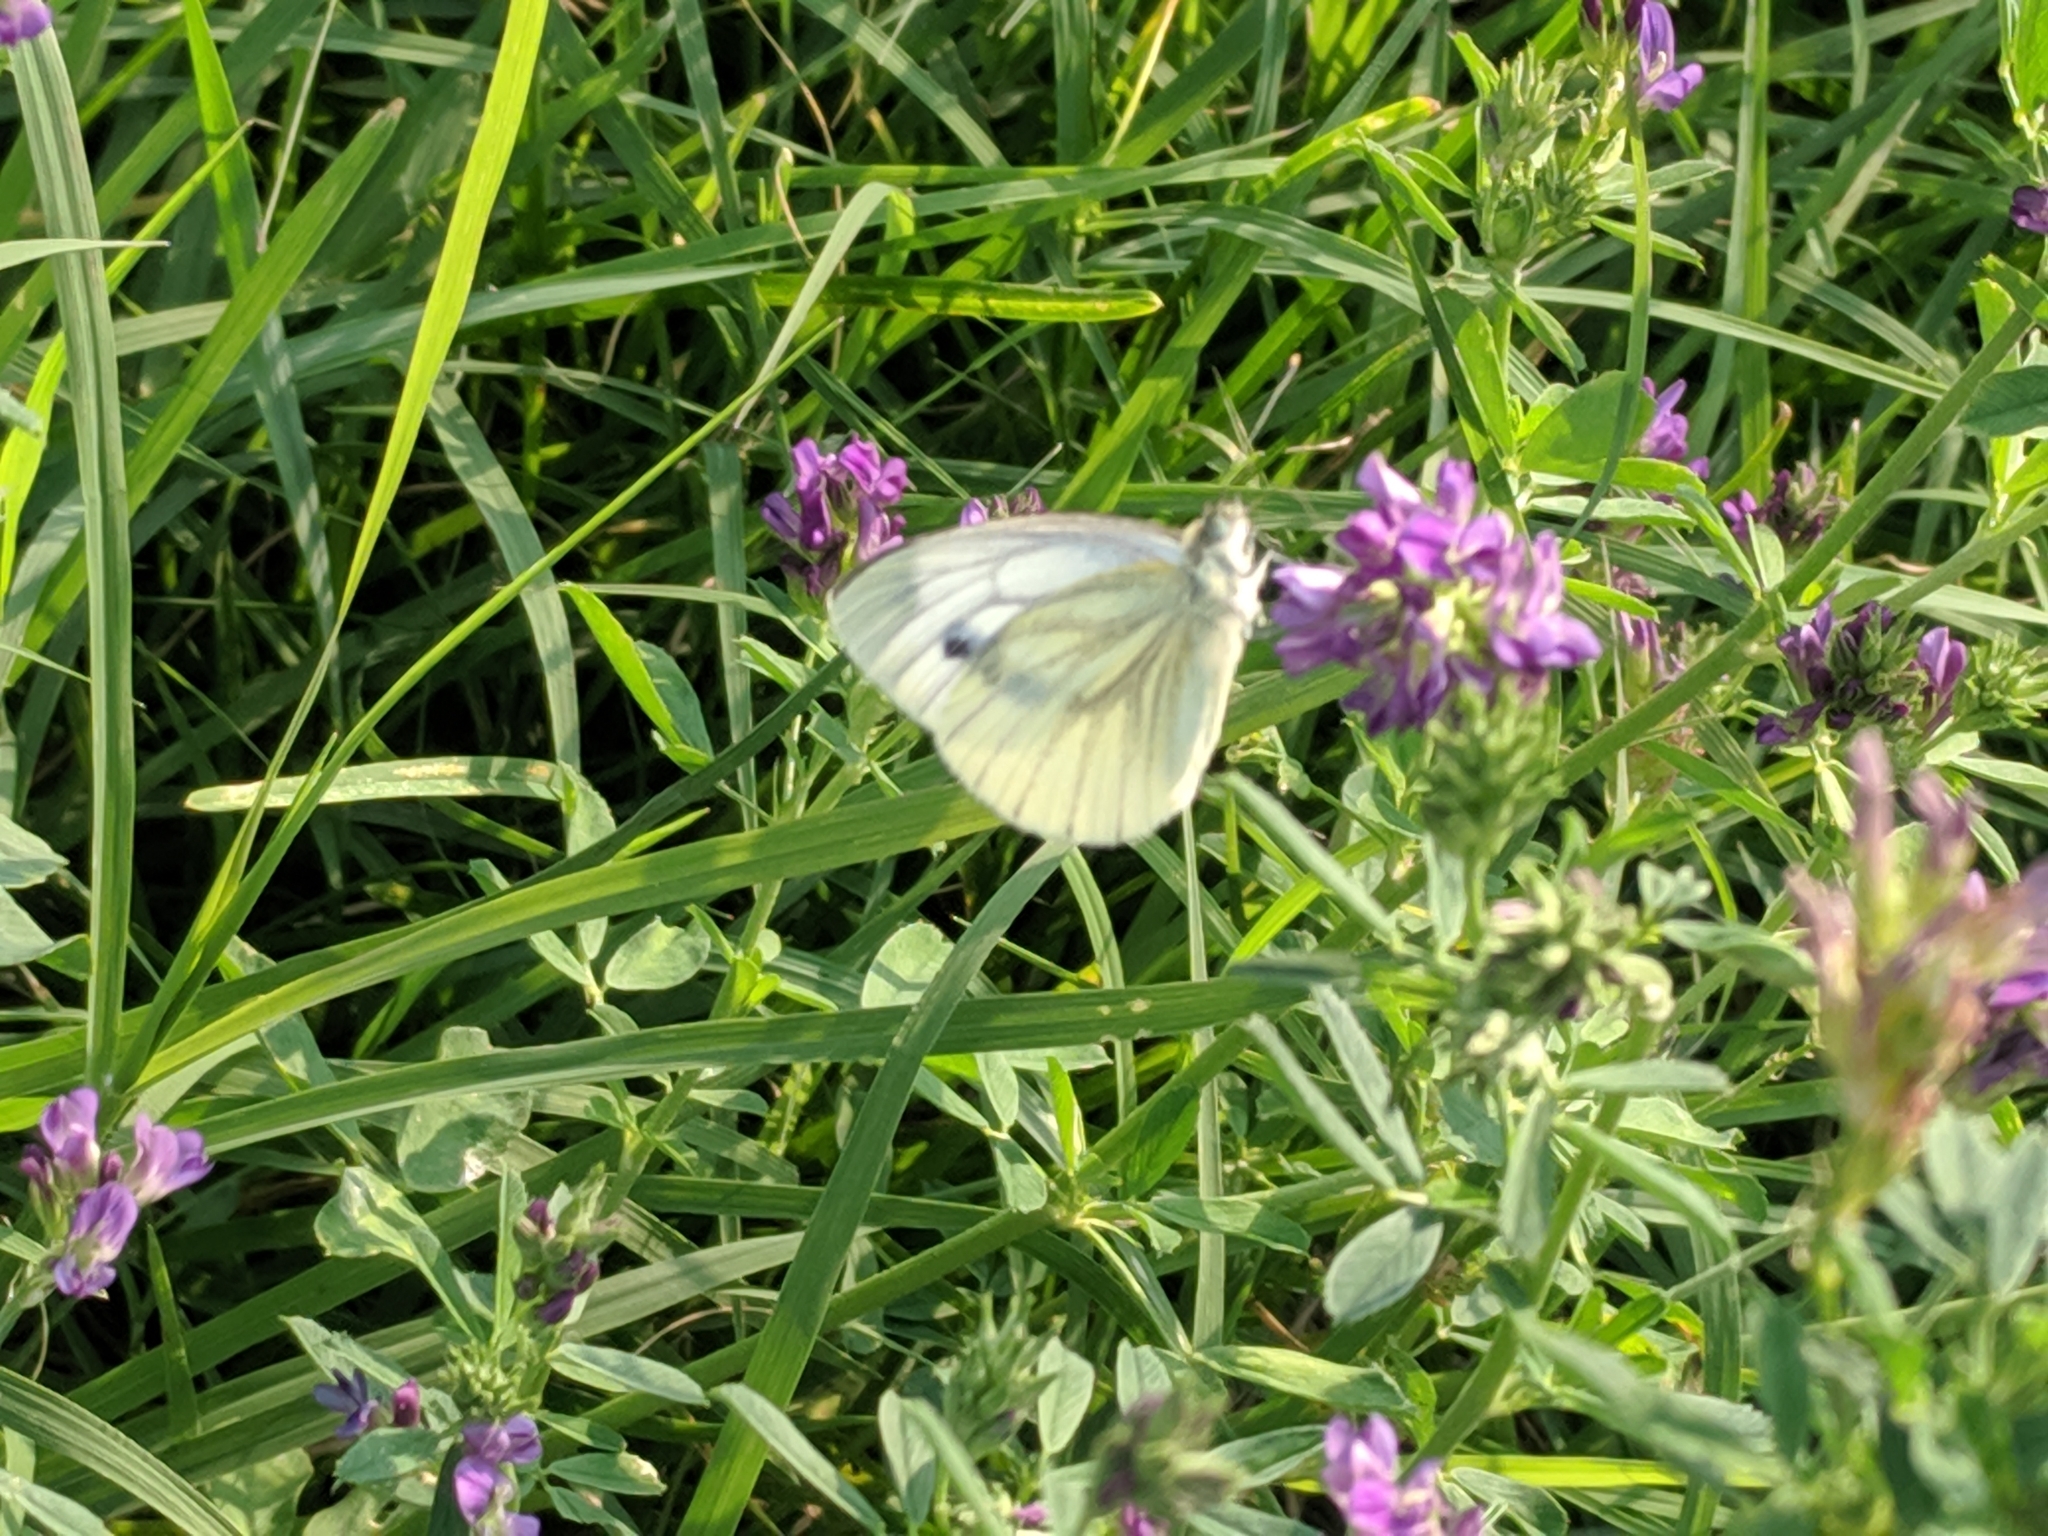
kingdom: Animalia
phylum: Arthropoda
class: Insecta
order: Lepidoptera
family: Pieridae
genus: Pieris
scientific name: Pieris napi
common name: Green-veined white
